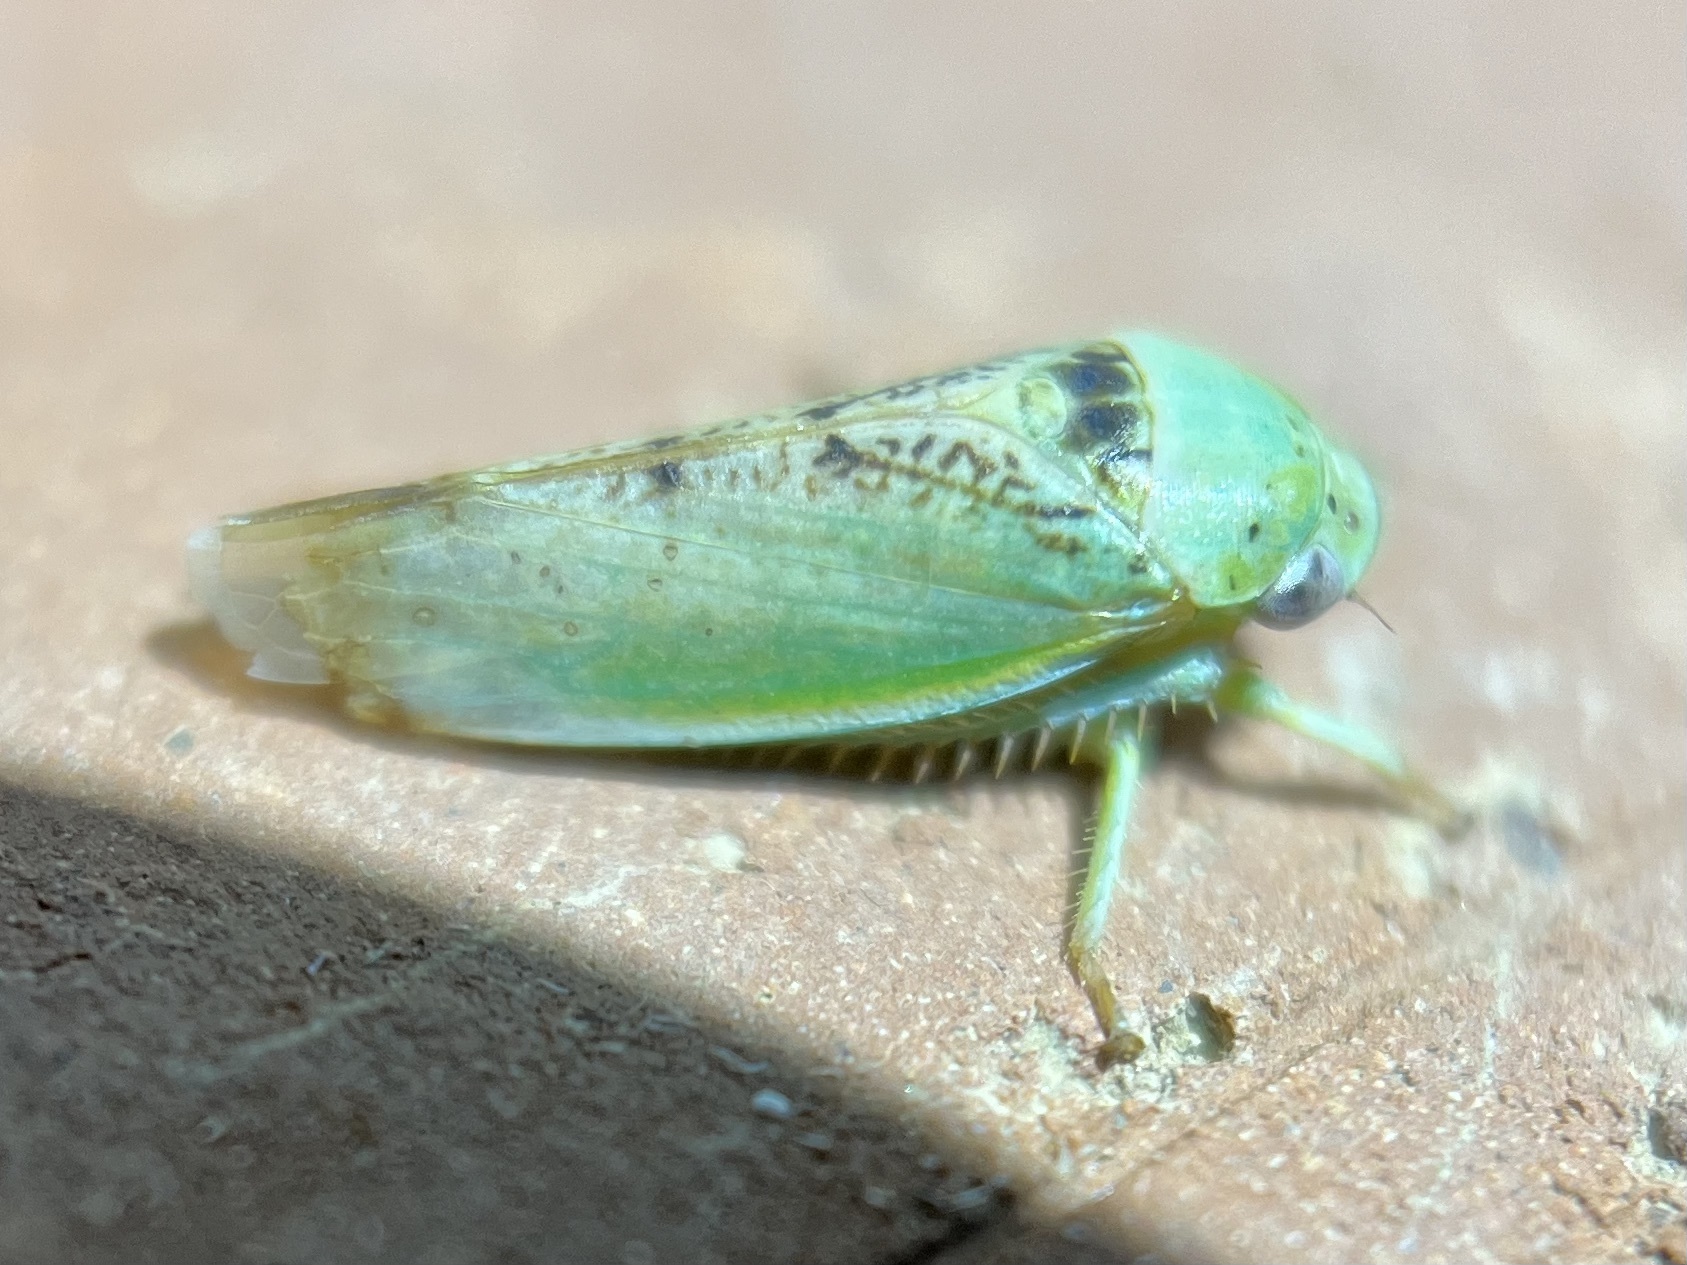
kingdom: Animalia
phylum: Arthropoda
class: Insecta
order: Hemiptera
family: Cicadellidae
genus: Hamana
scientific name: Hamana dictitoria
